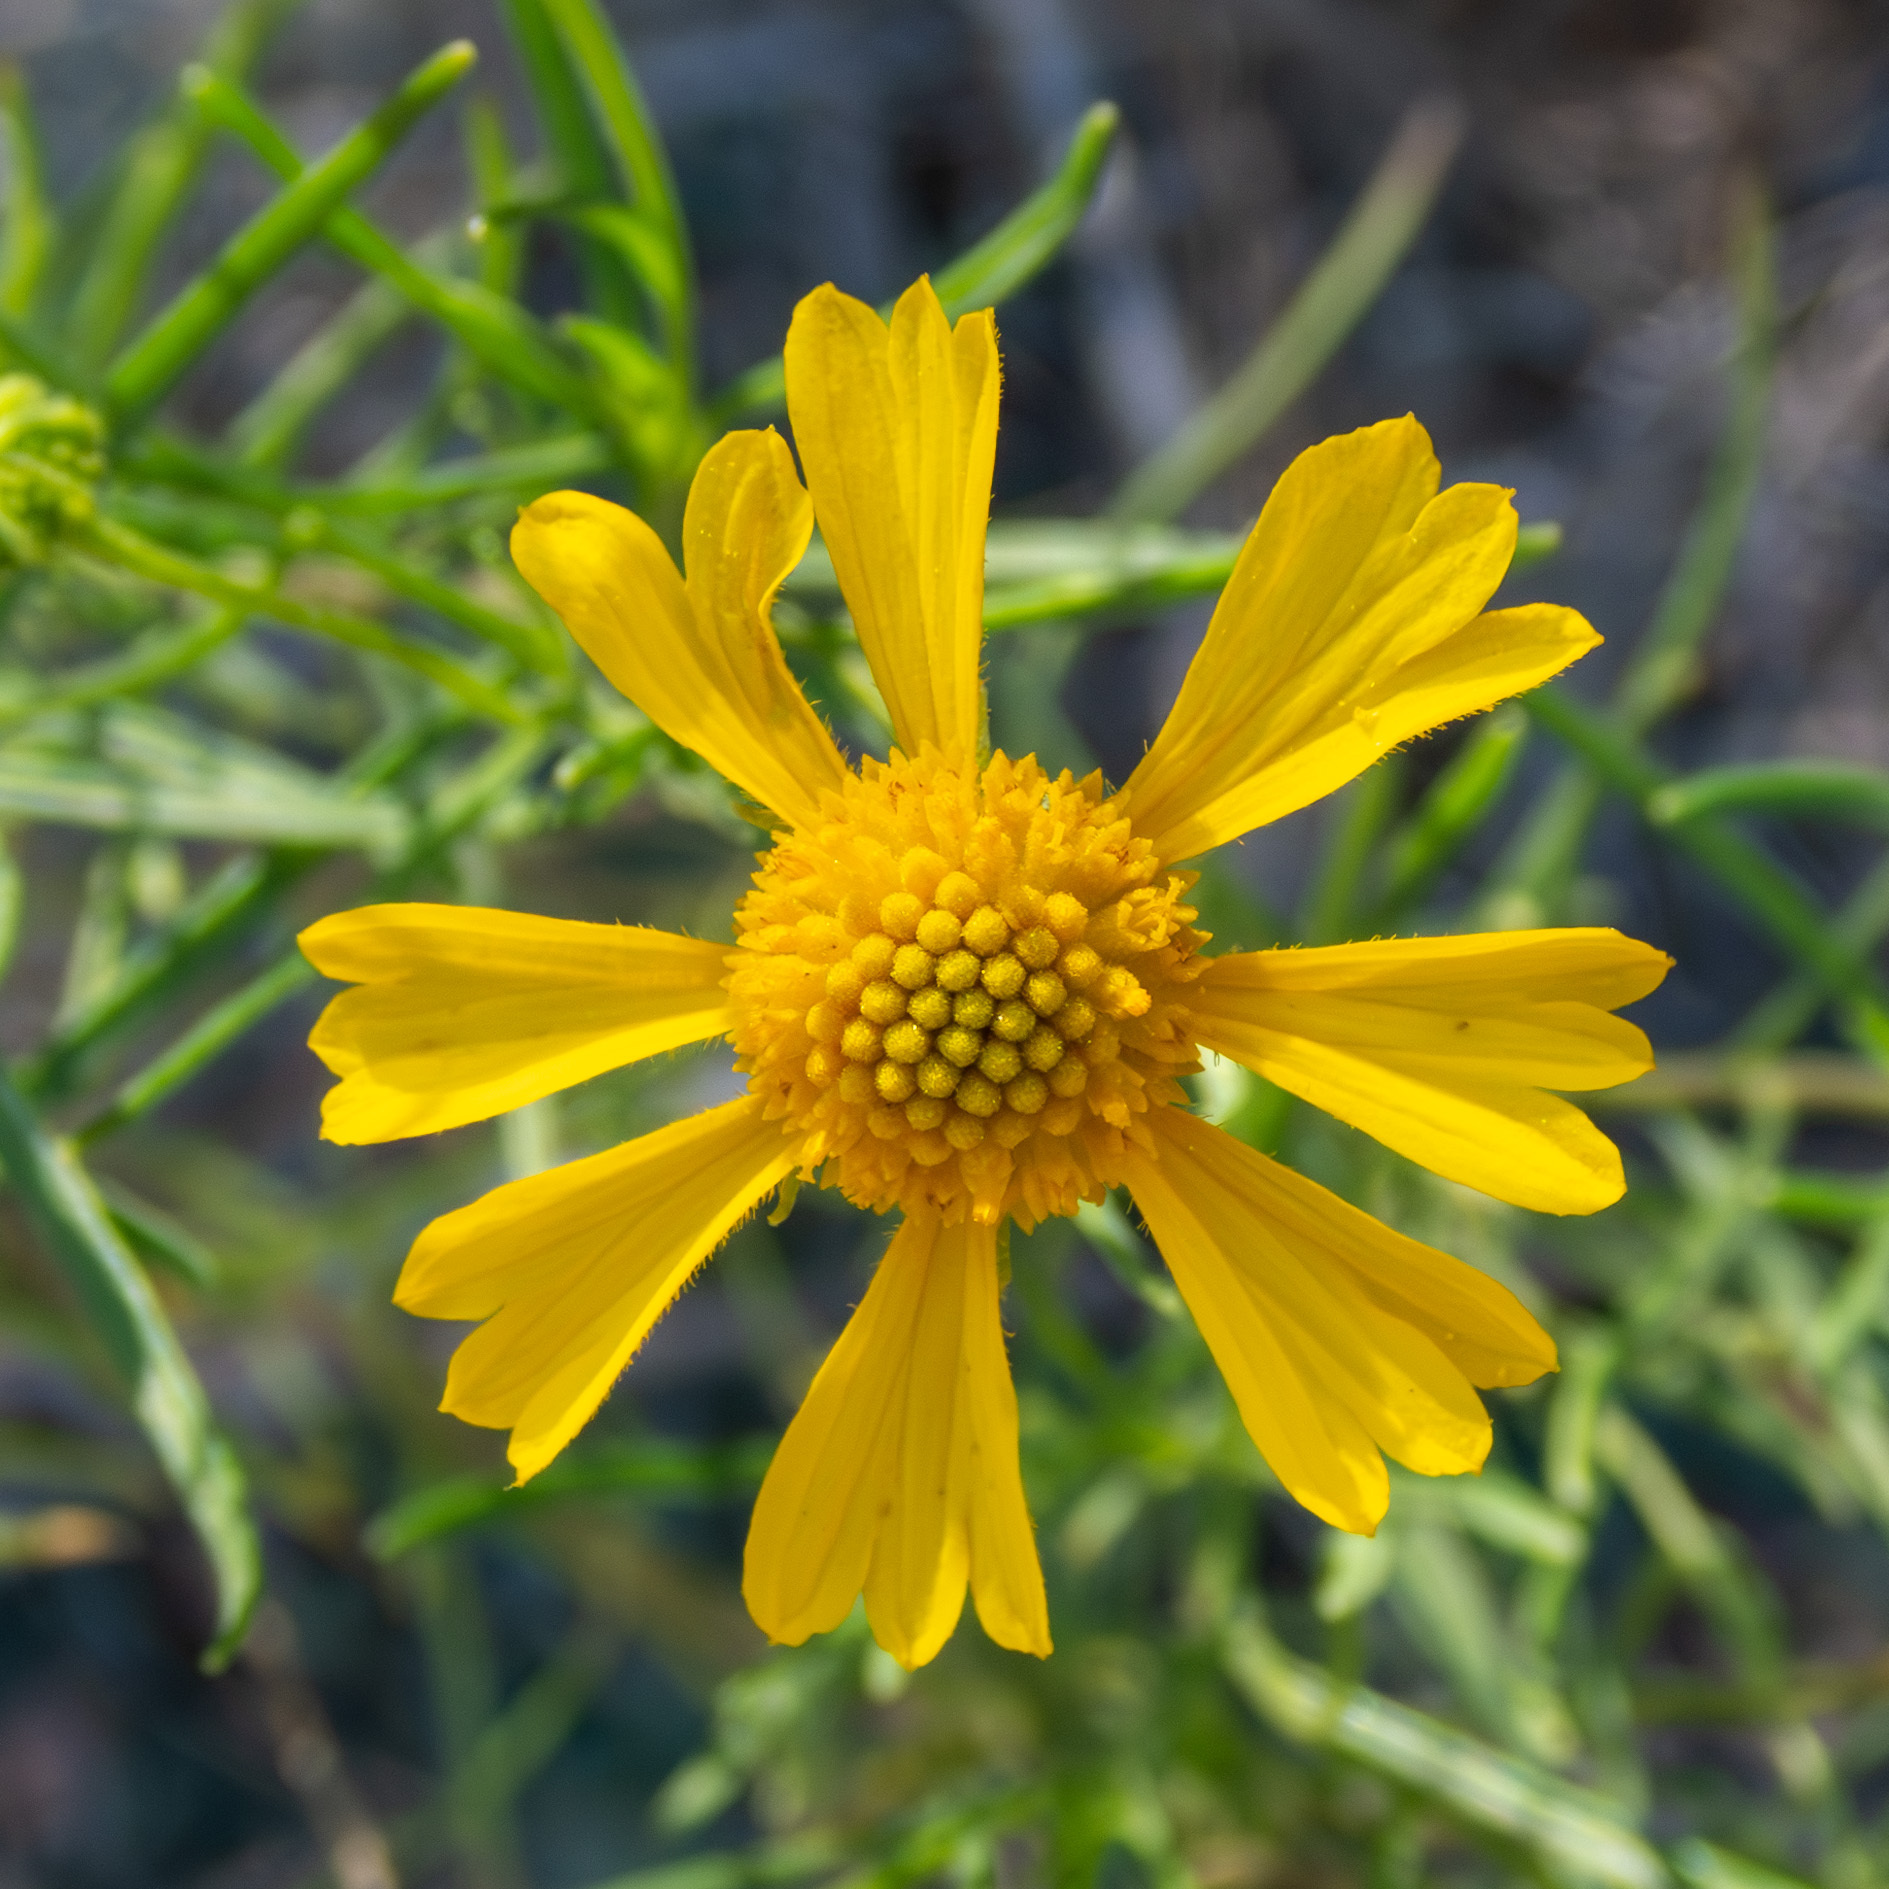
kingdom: Plantae
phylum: Tracheophyta
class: Magnoliopsida
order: Asterales
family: Asteraceae
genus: Helenium
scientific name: Helenium amarum
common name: Bitter sneezeweed
